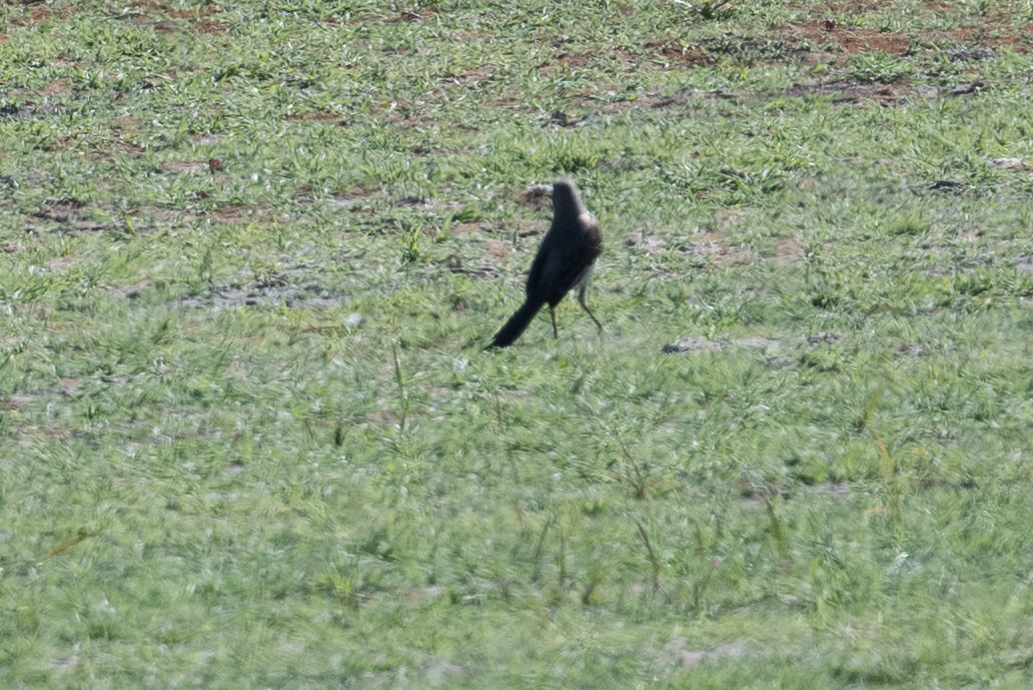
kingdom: Animalia
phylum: Chordata
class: Aves
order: Passeriformes
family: Mimidae
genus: Mimus
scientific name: Mimus polyglottos
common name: Northern mockingbird
